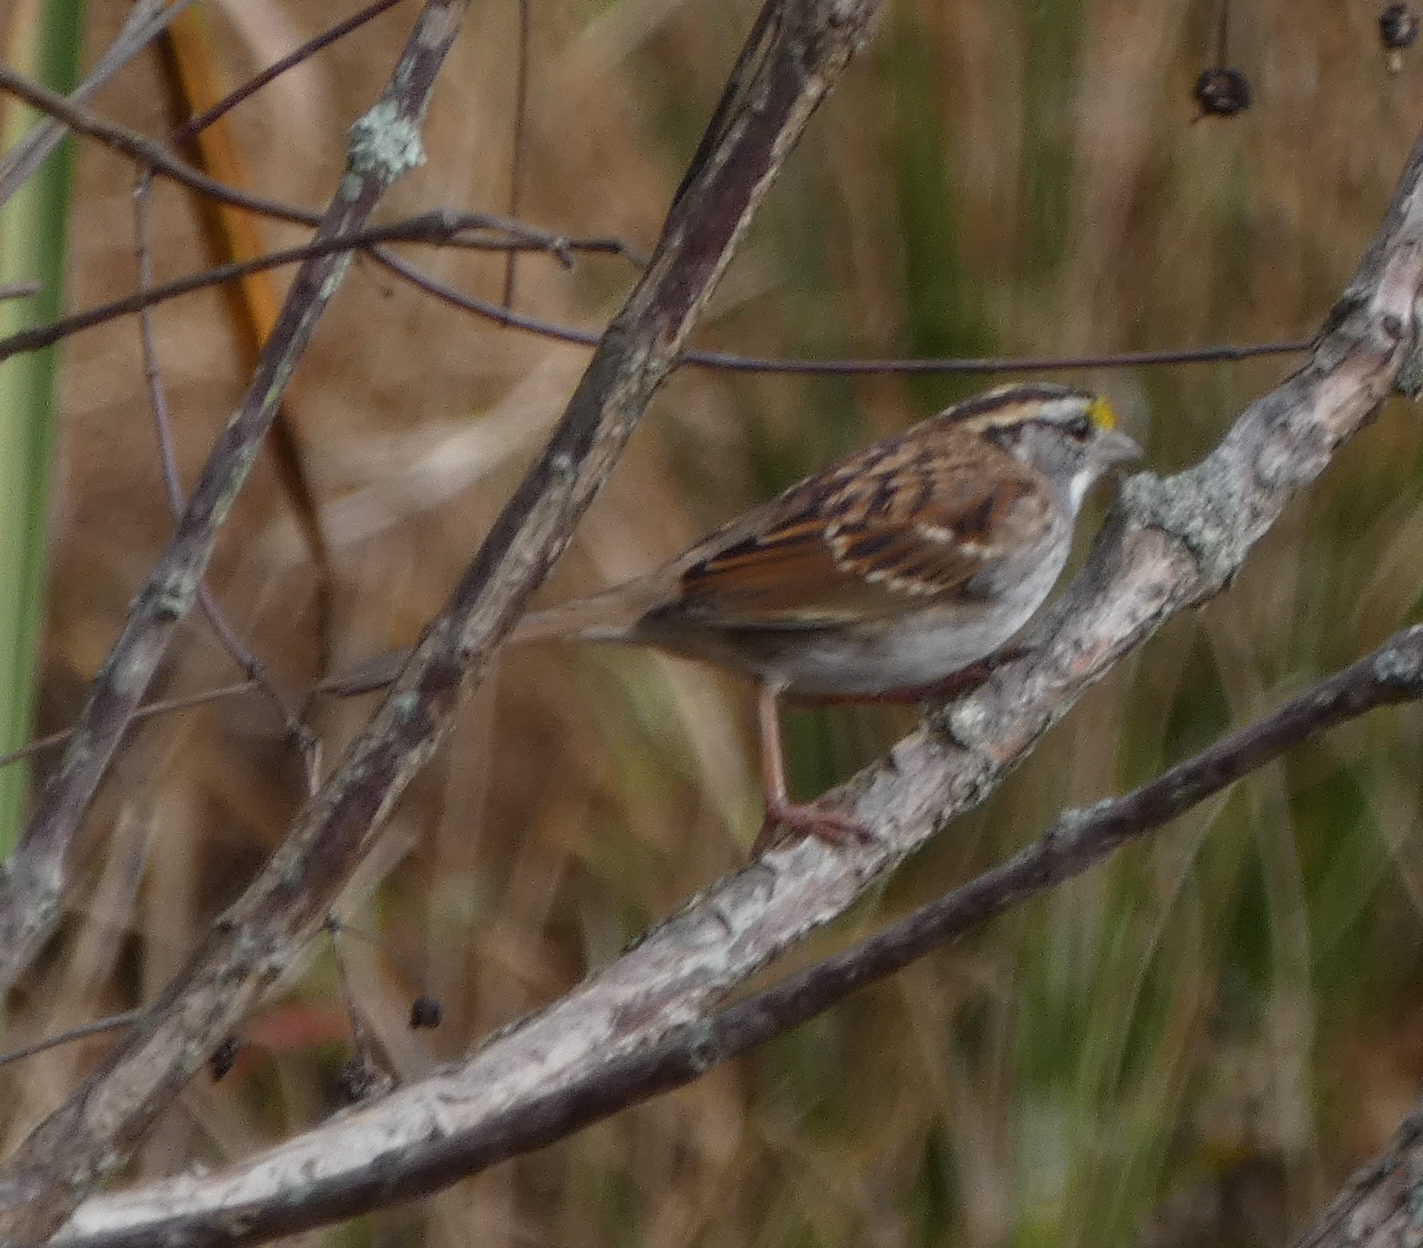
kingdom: Animalia
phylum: Chordata
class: Aves
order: Passeriformes
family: Passerellidae
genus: Zonotrichia
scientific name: Zonotrichia albicollis
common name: White-throated sparrow
